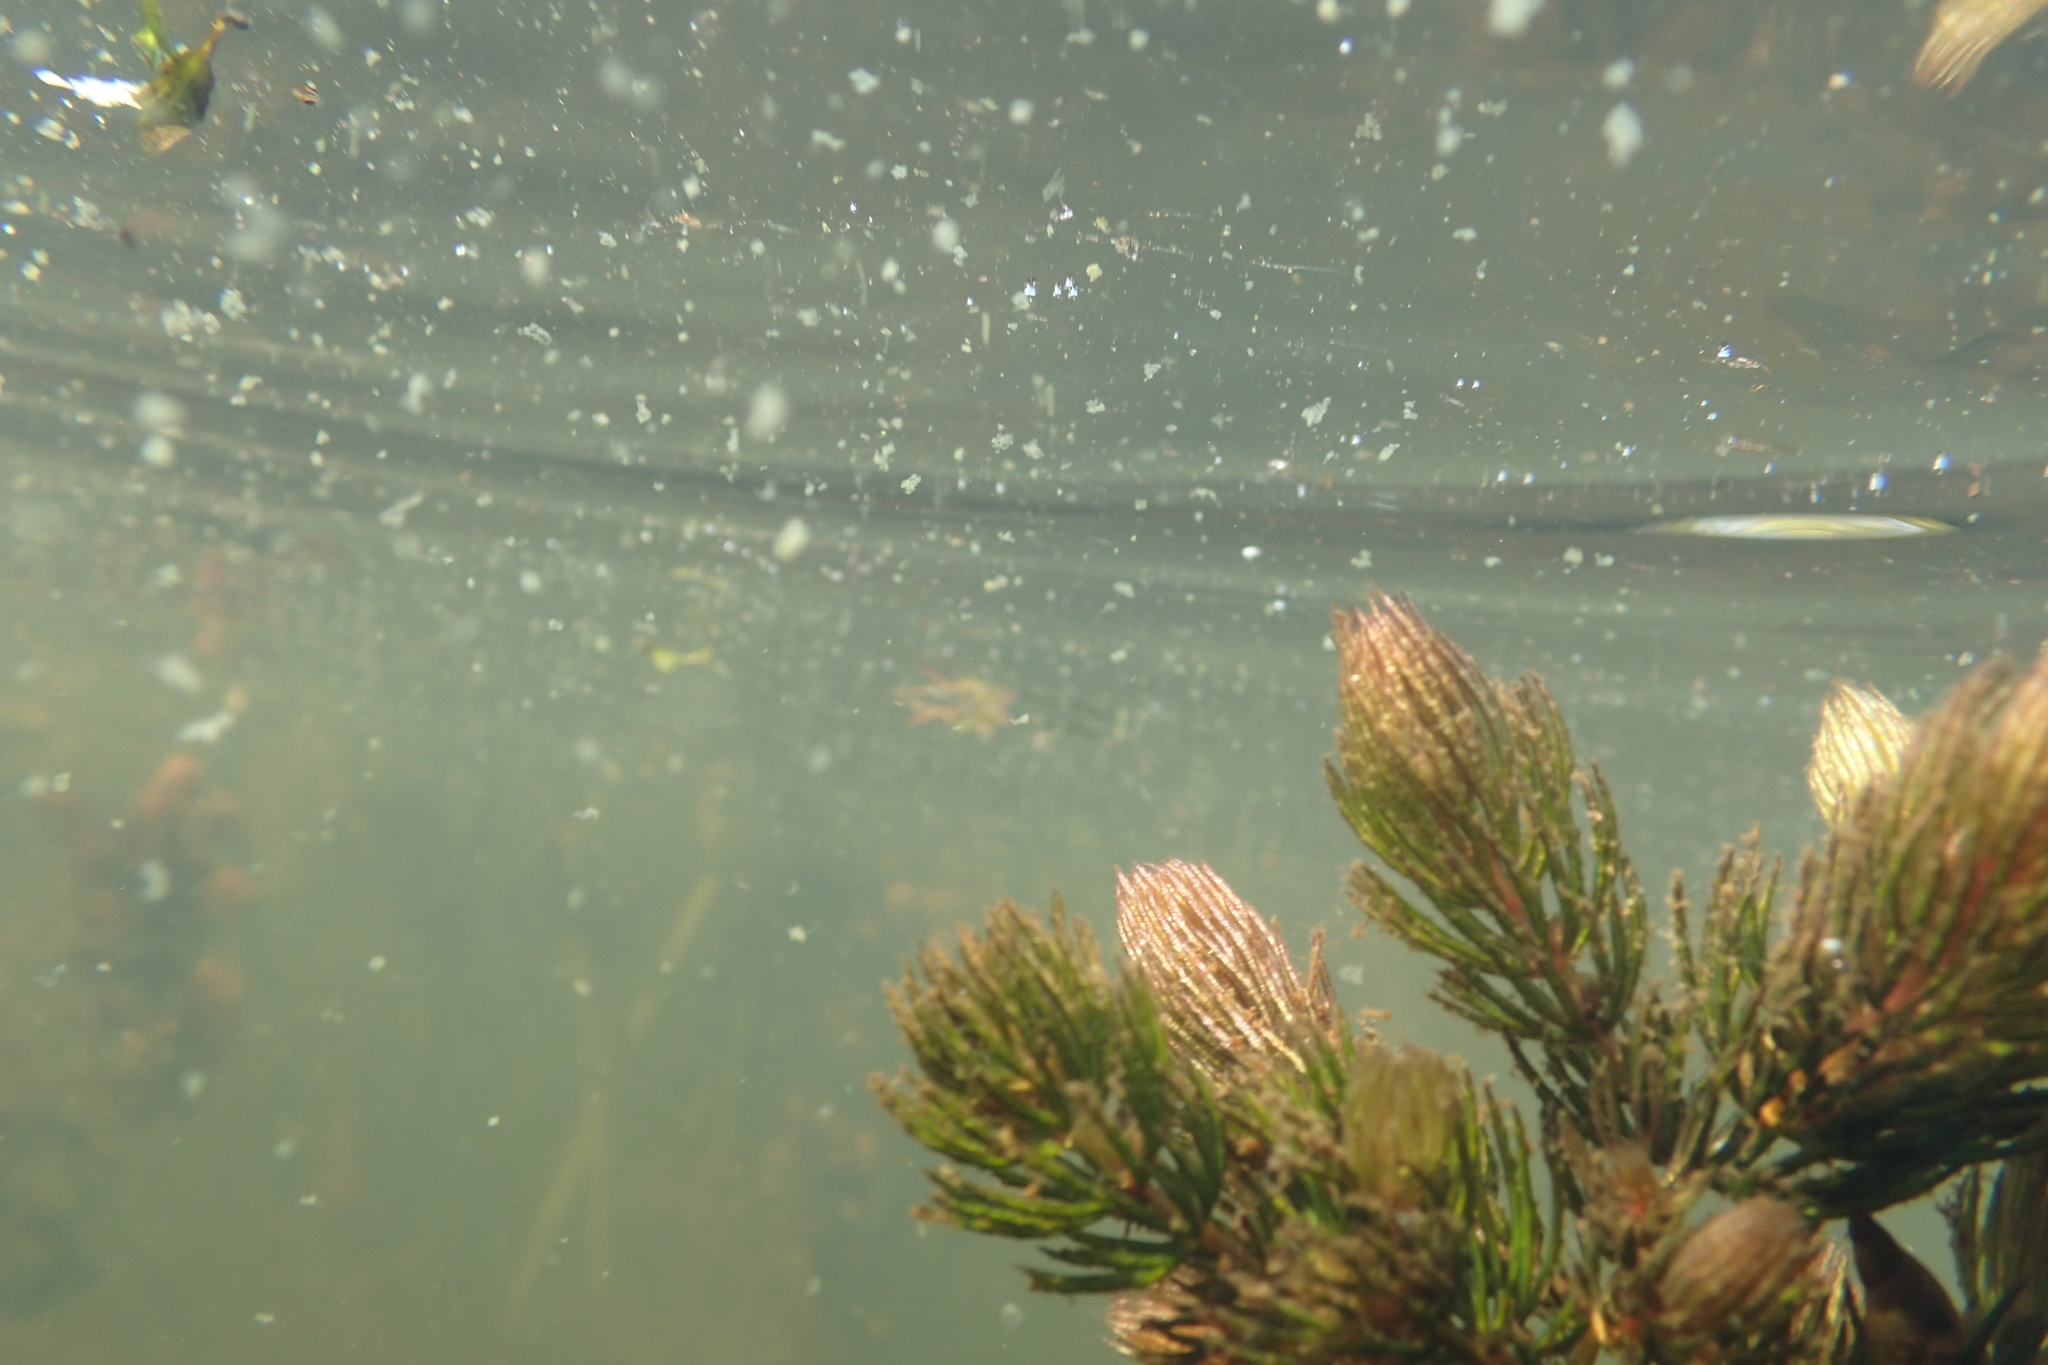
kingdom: Plantae
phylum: Tracheophyta
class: Magnoliopsida
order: Ceratophyllales
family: Ceratophyllaceae
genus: Ceratophyllum
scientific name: Ceratophyllum demersum
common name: Rigid hornwort
